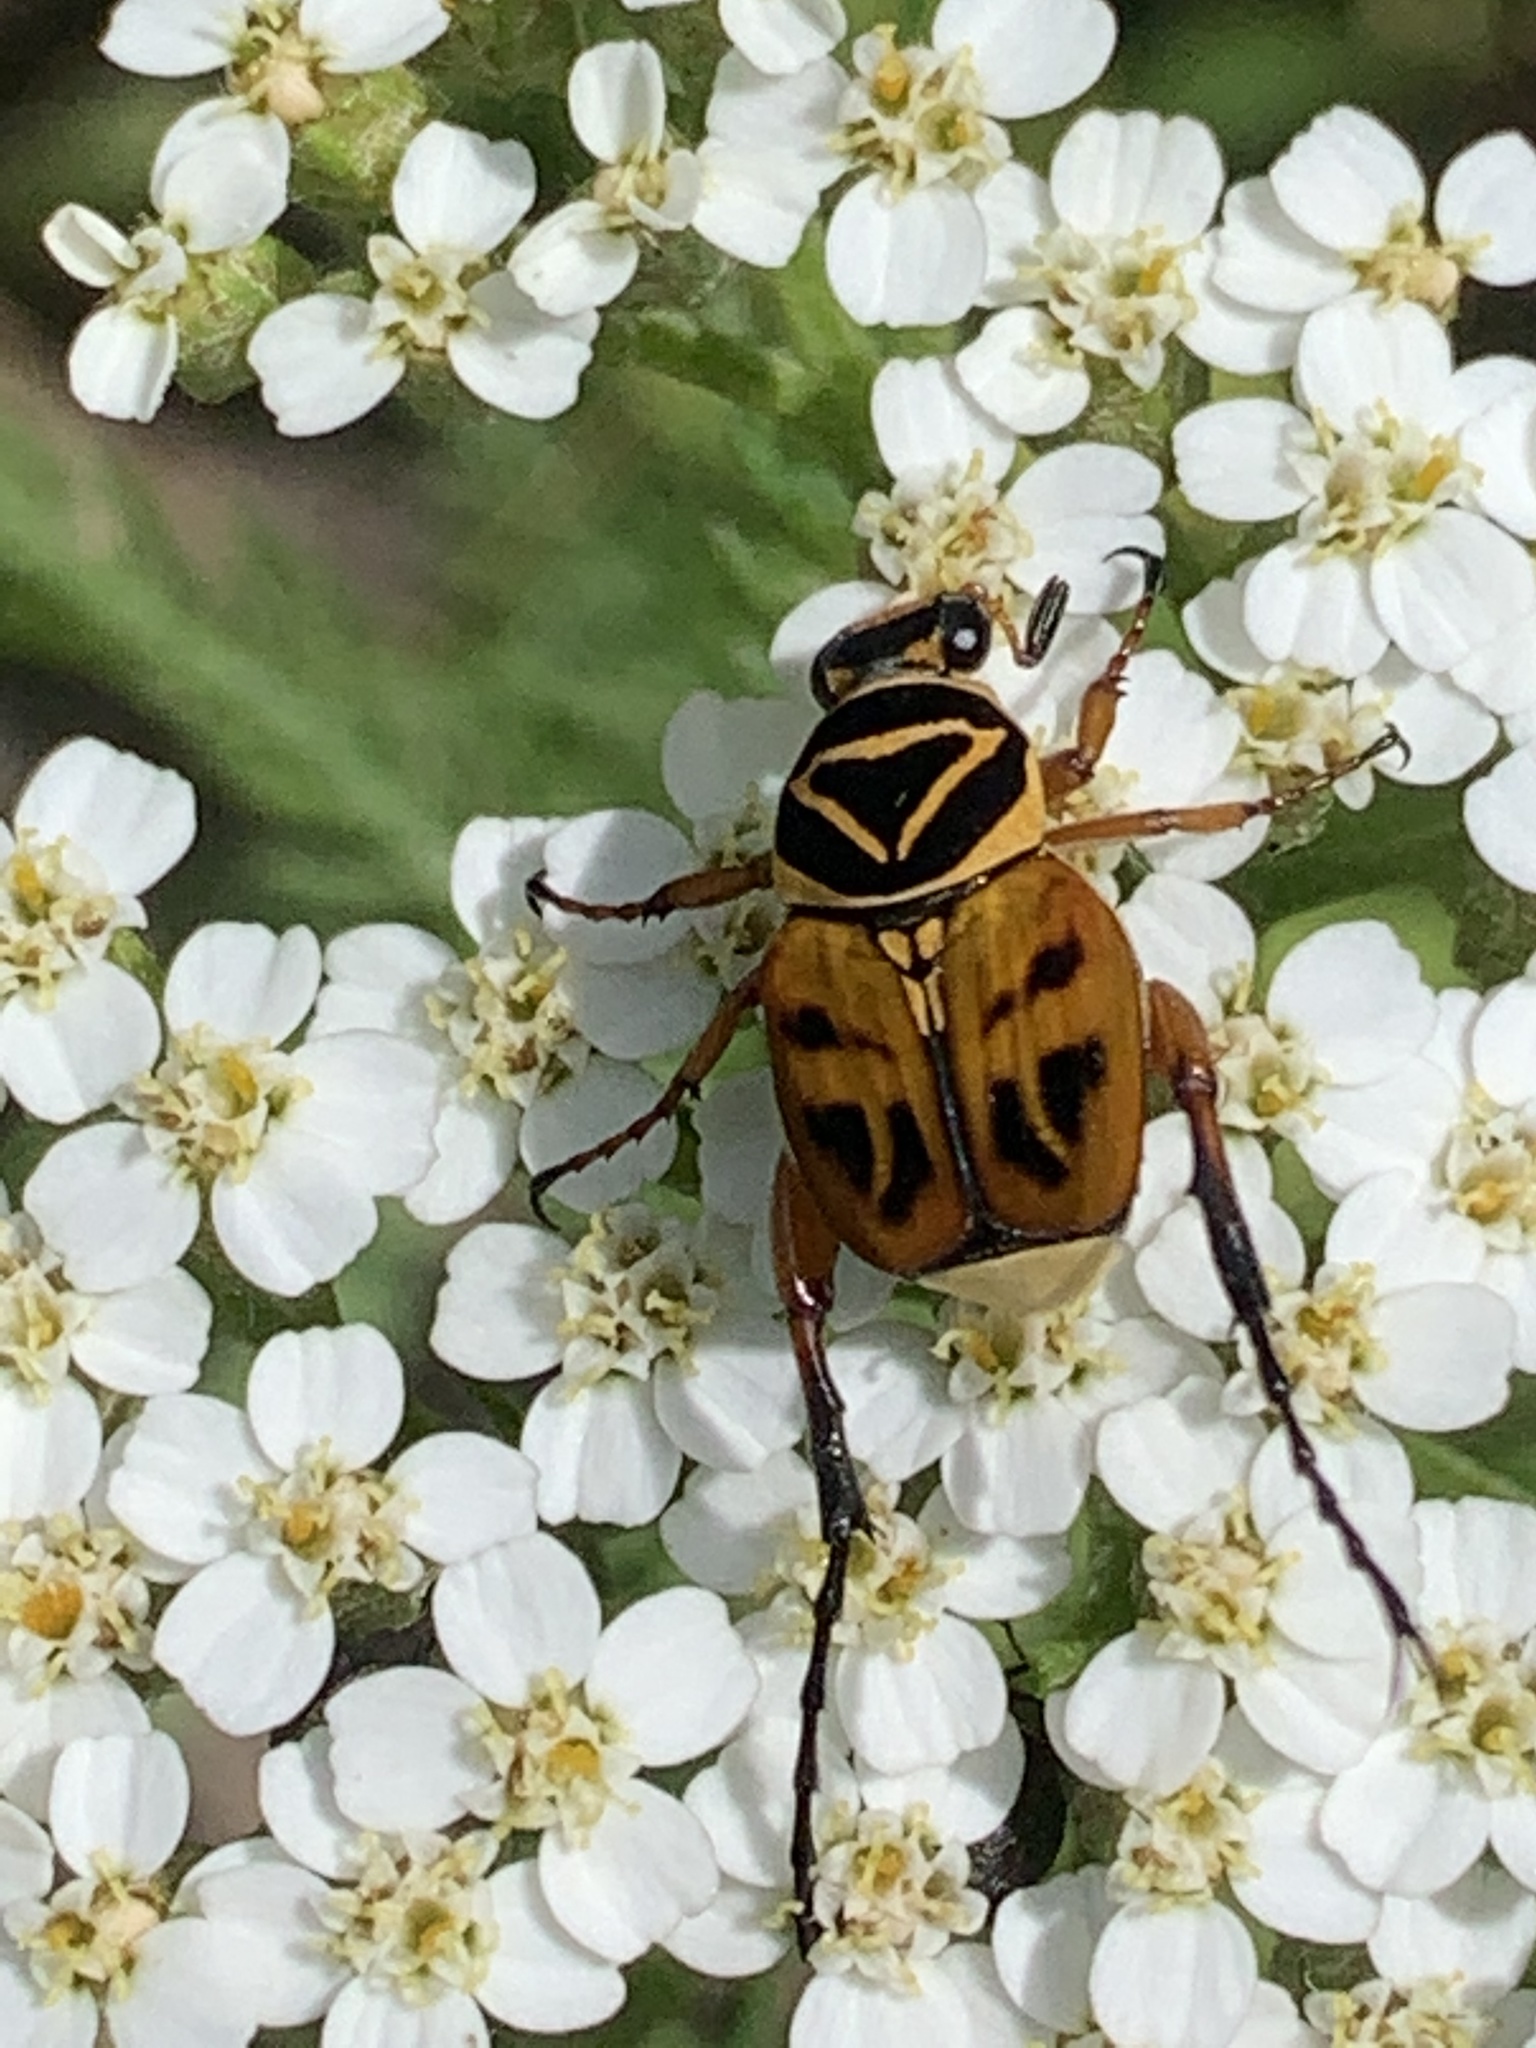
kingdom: Animalia
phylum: Arthropoda
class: Insecta
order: Coleoptera
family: Scarabaeidae
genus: Trigonopeltastes
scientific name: Trigonopeltastes delta
